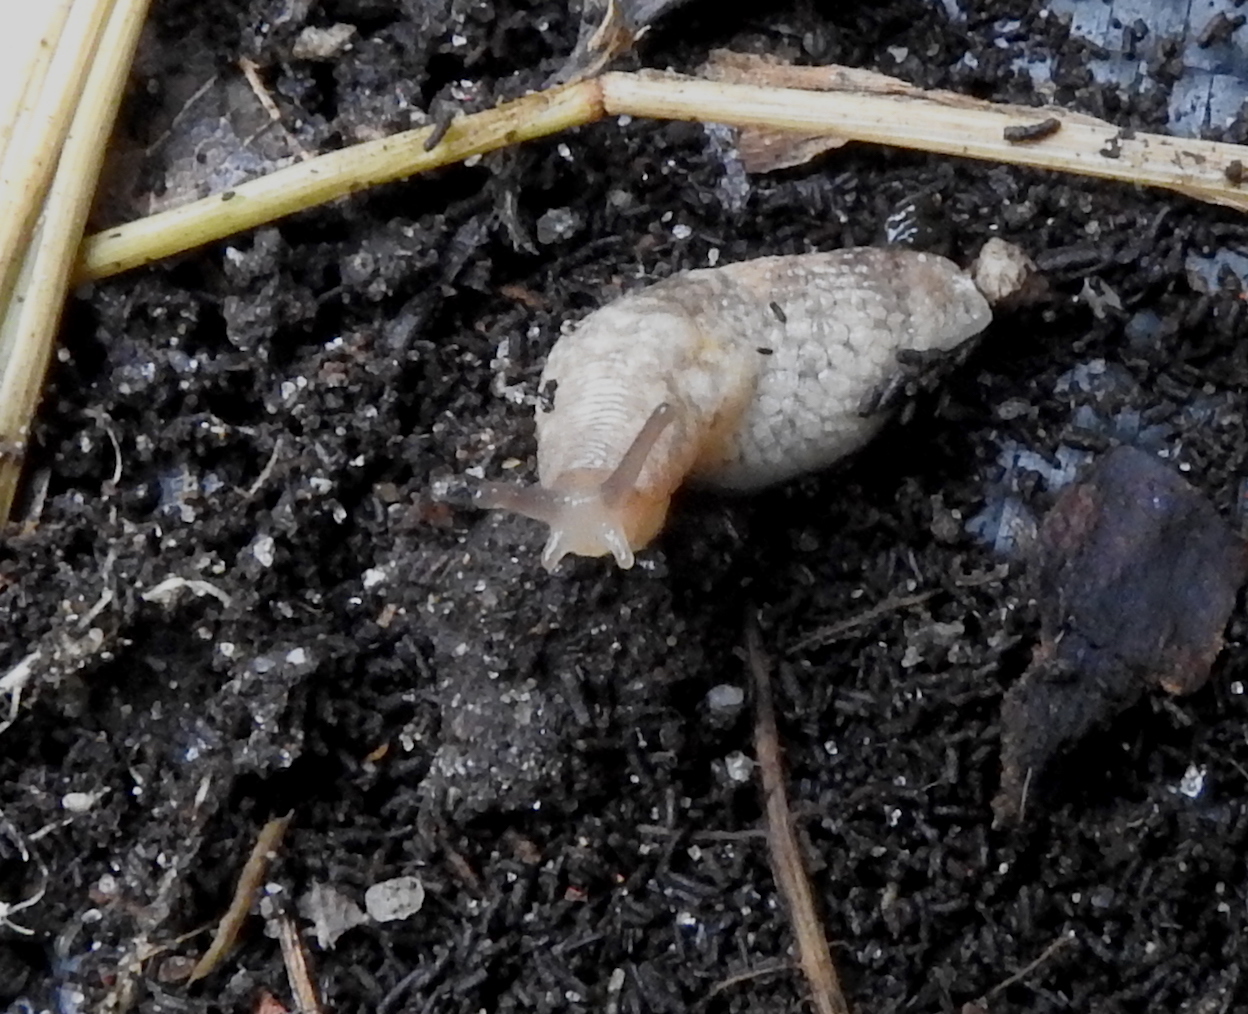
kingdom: Animalia
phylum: Mollusca
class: Gastropoda
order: Stylommatophora
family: Agriolimacidae
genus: Deroceras
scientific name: Deroceras reticulatum
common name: Gray field slug
